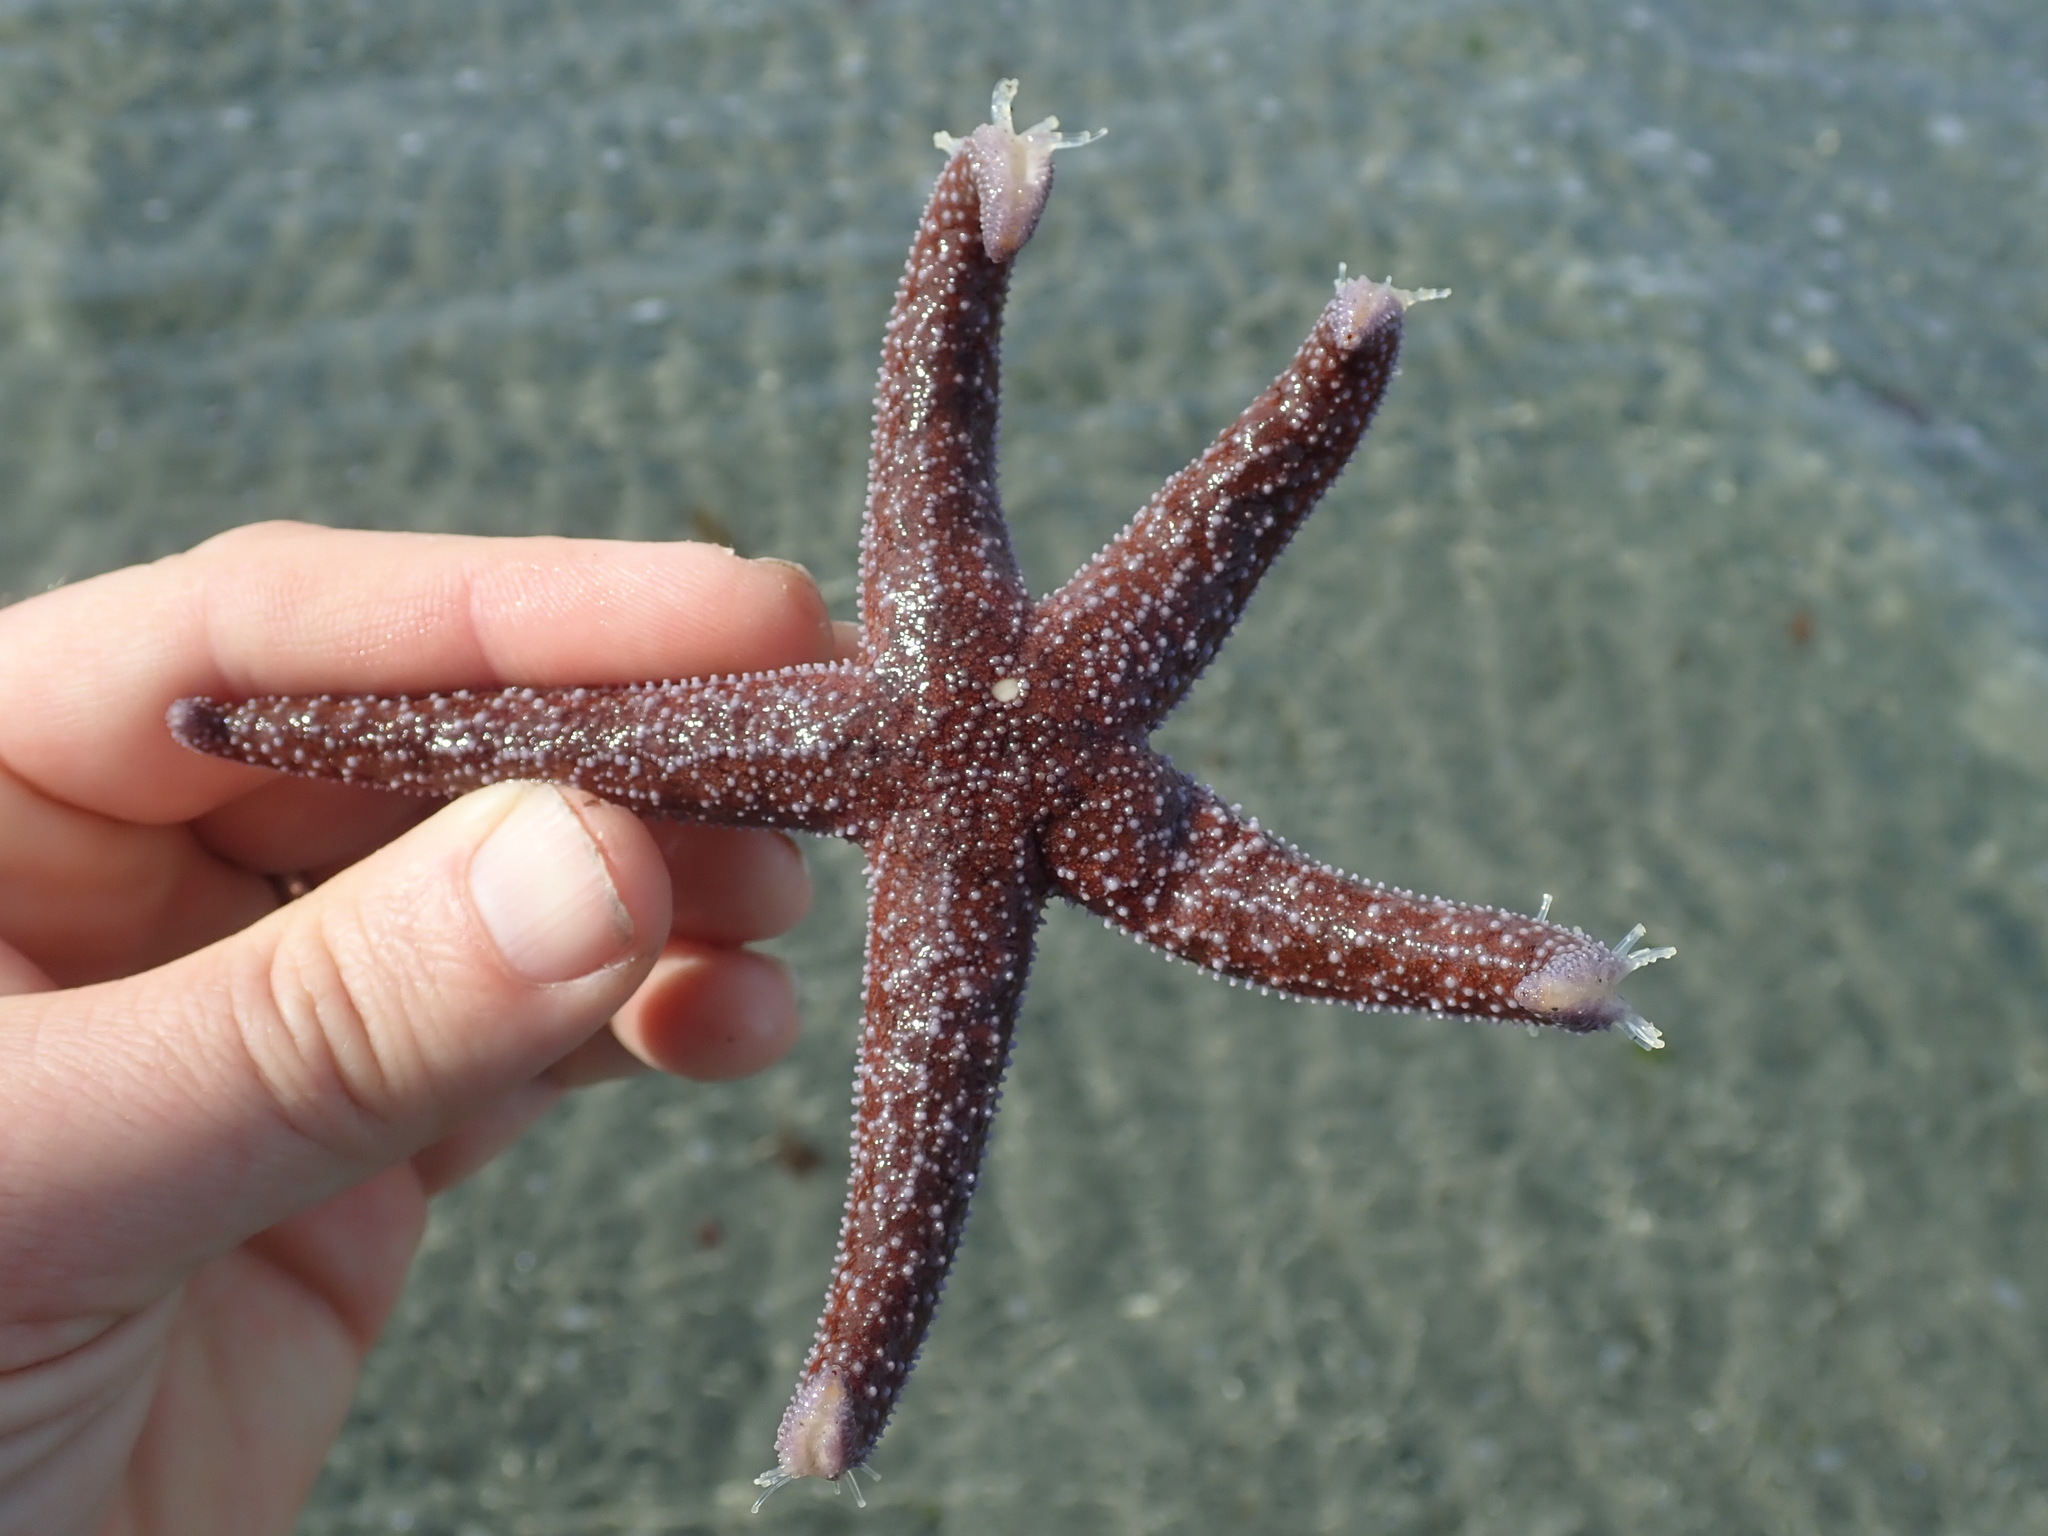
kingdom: Animalia
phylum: Echinodermata
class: Asteroidea
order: Forcipulatida
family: Asteriidae
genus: Evasterias
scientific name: Evasterias troschelii
